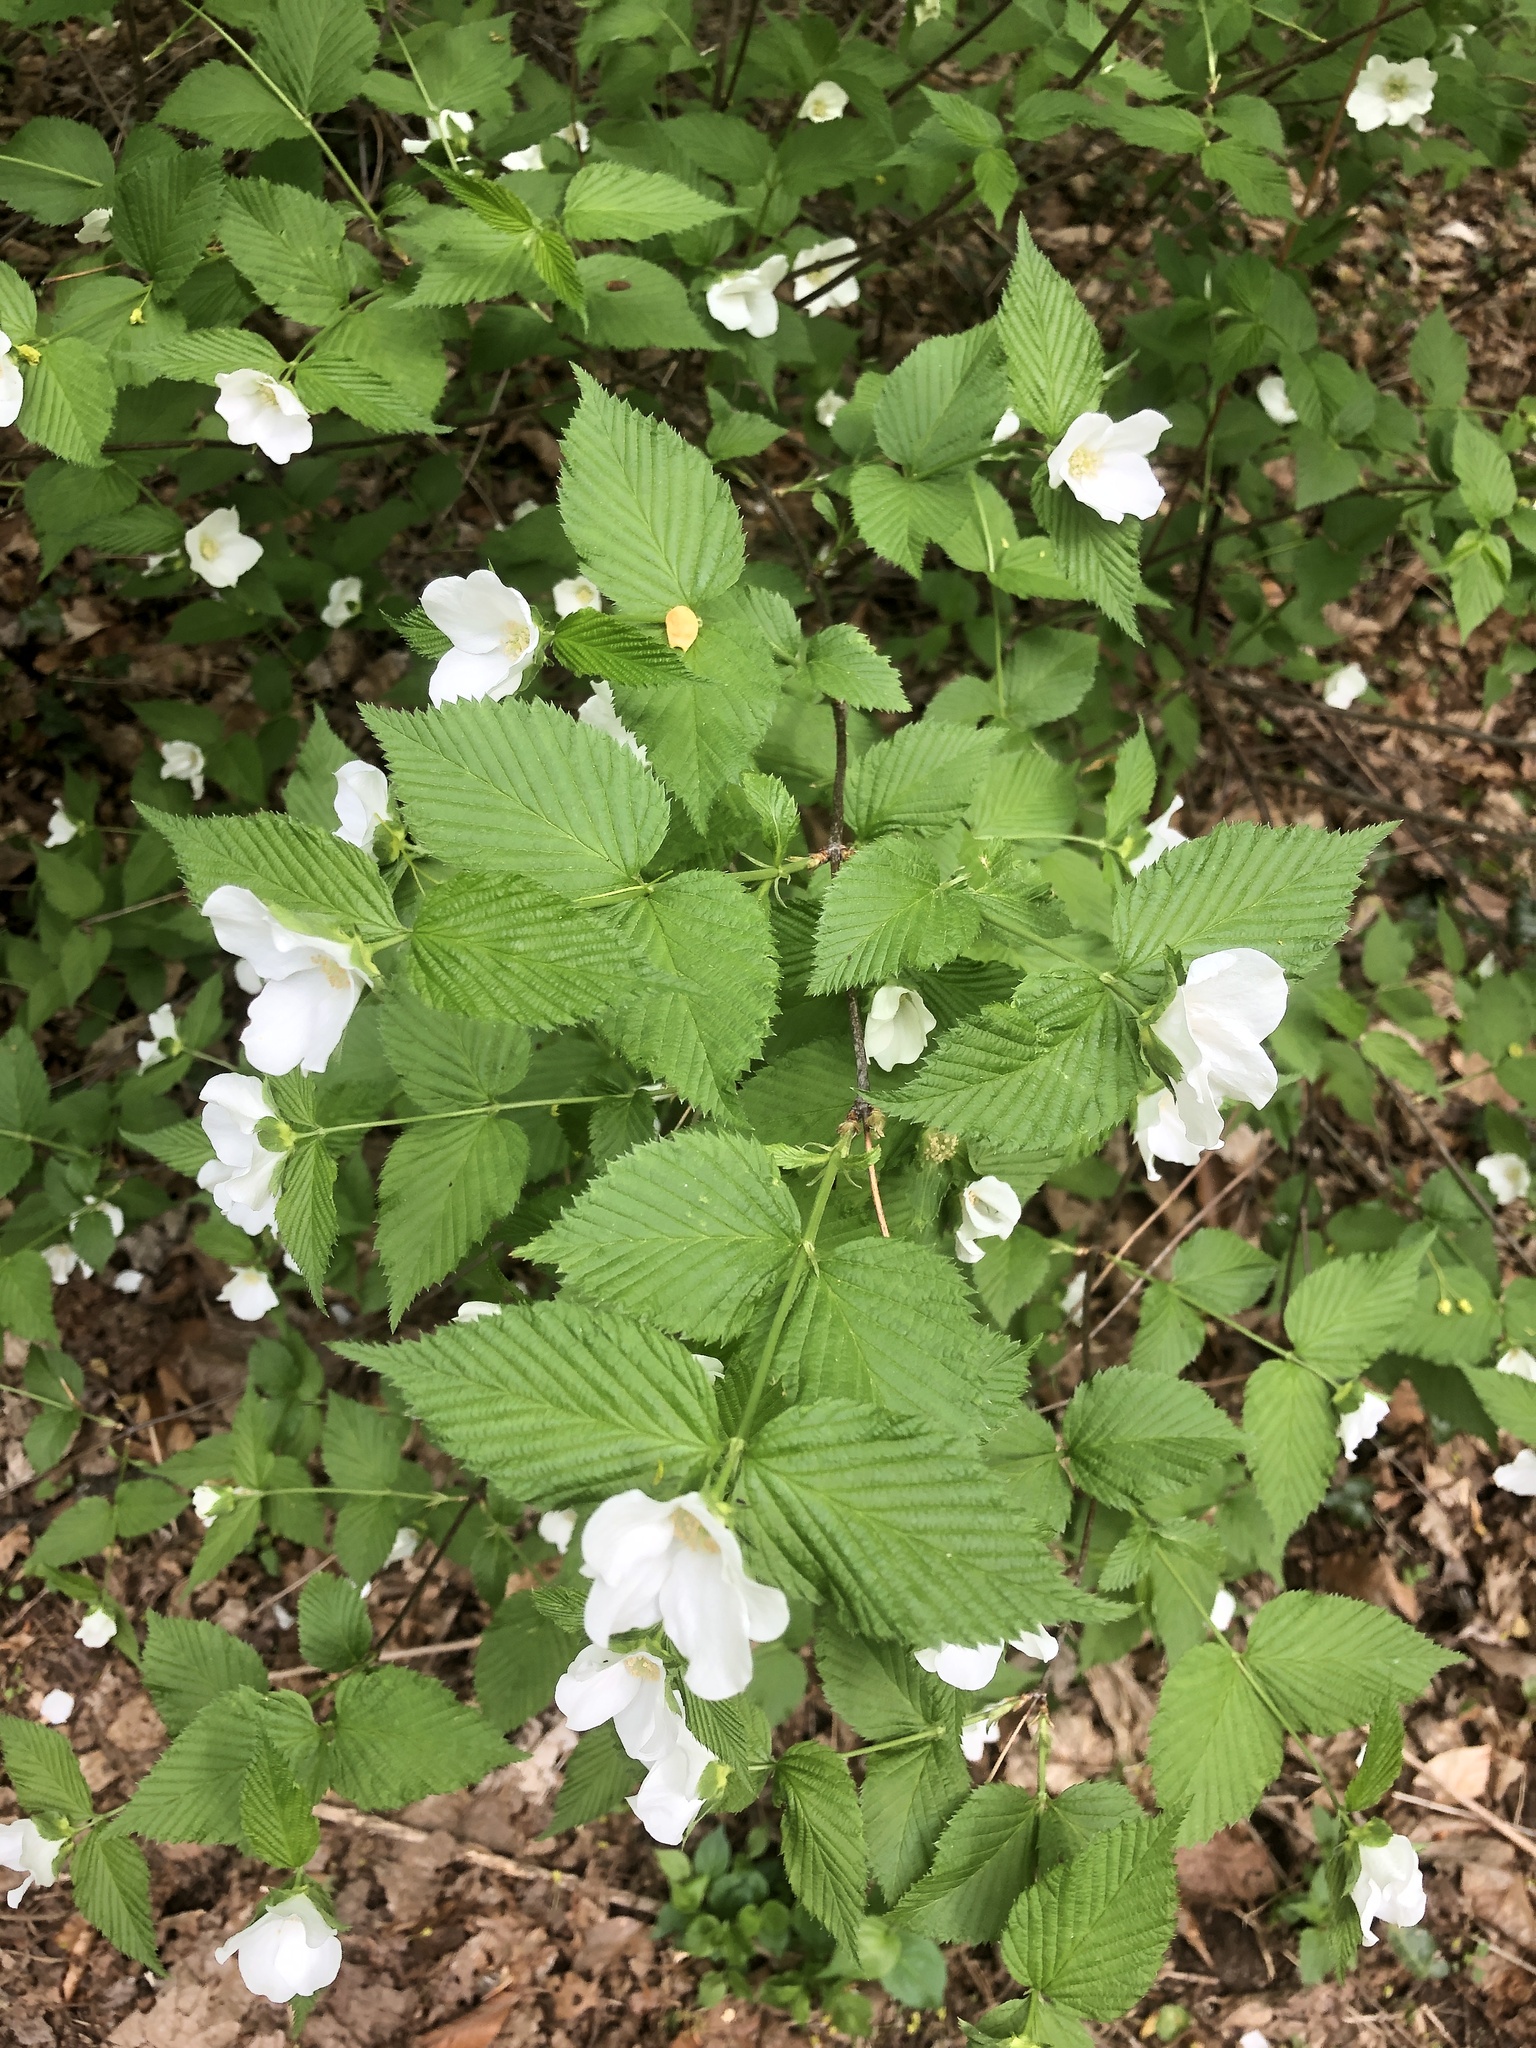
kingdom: Plantae
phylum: Tracheophyta
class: Magnoliopsida
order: Rosales
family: Rosaceae
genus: Rhodotypos
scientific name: Rhodotypos scandens
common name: Jetbead
